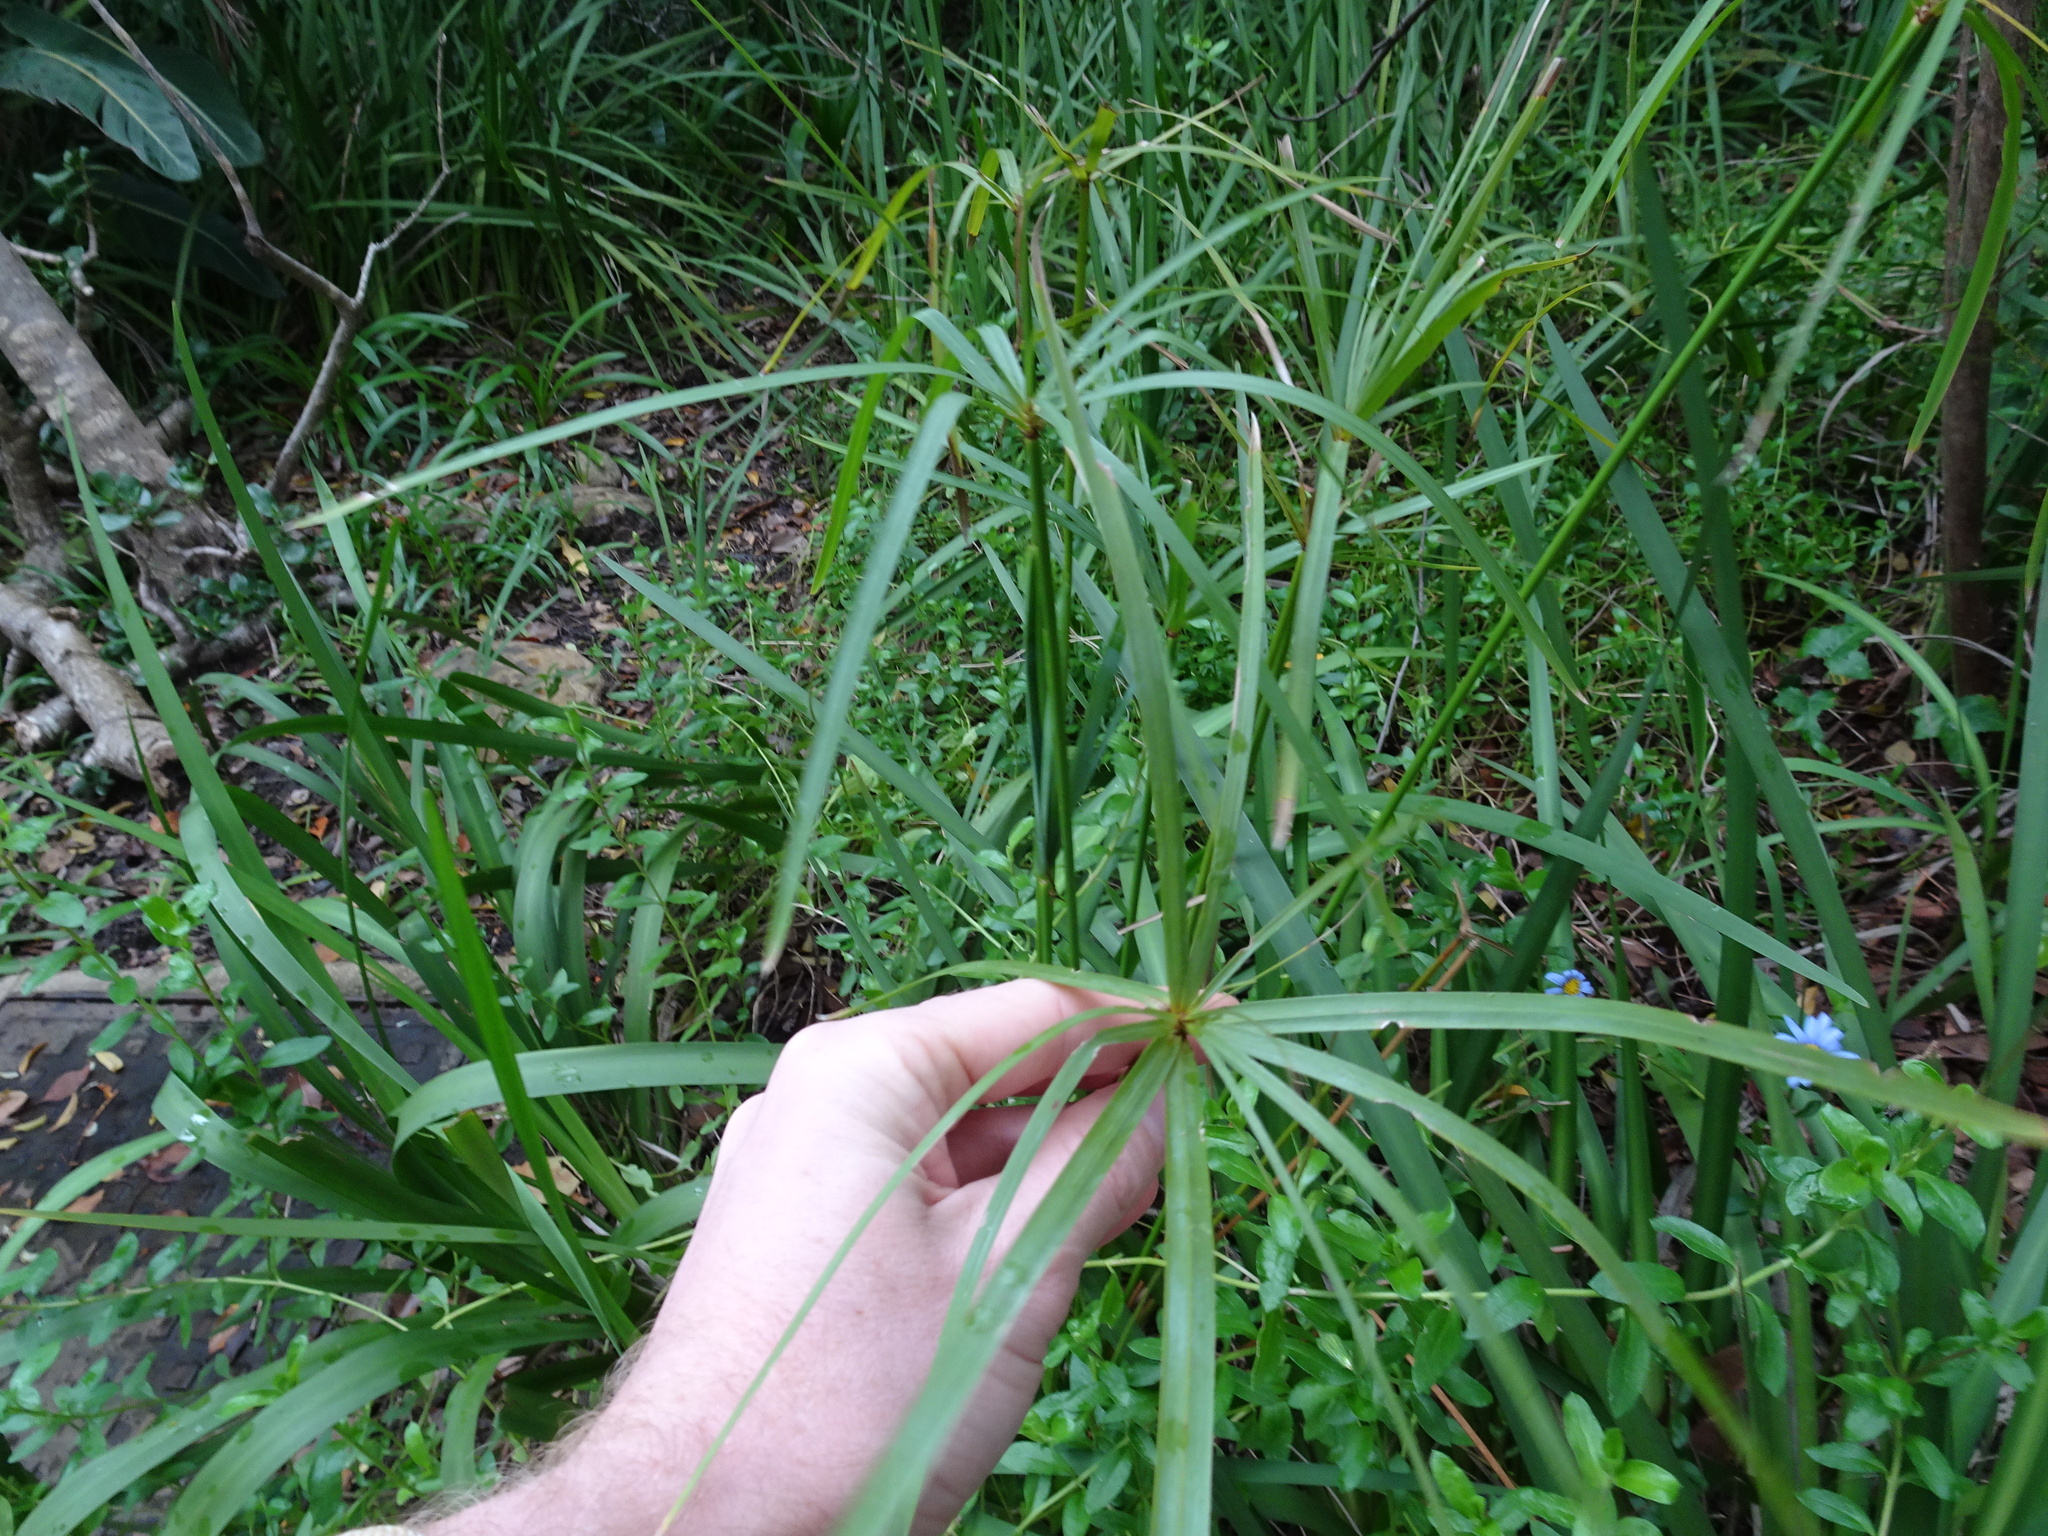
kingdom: Plantae
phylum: Tracheophyta
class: Liliopsida
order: Poales
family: Cyperaceae
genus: Cyperus
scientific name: Cyperus textilis
